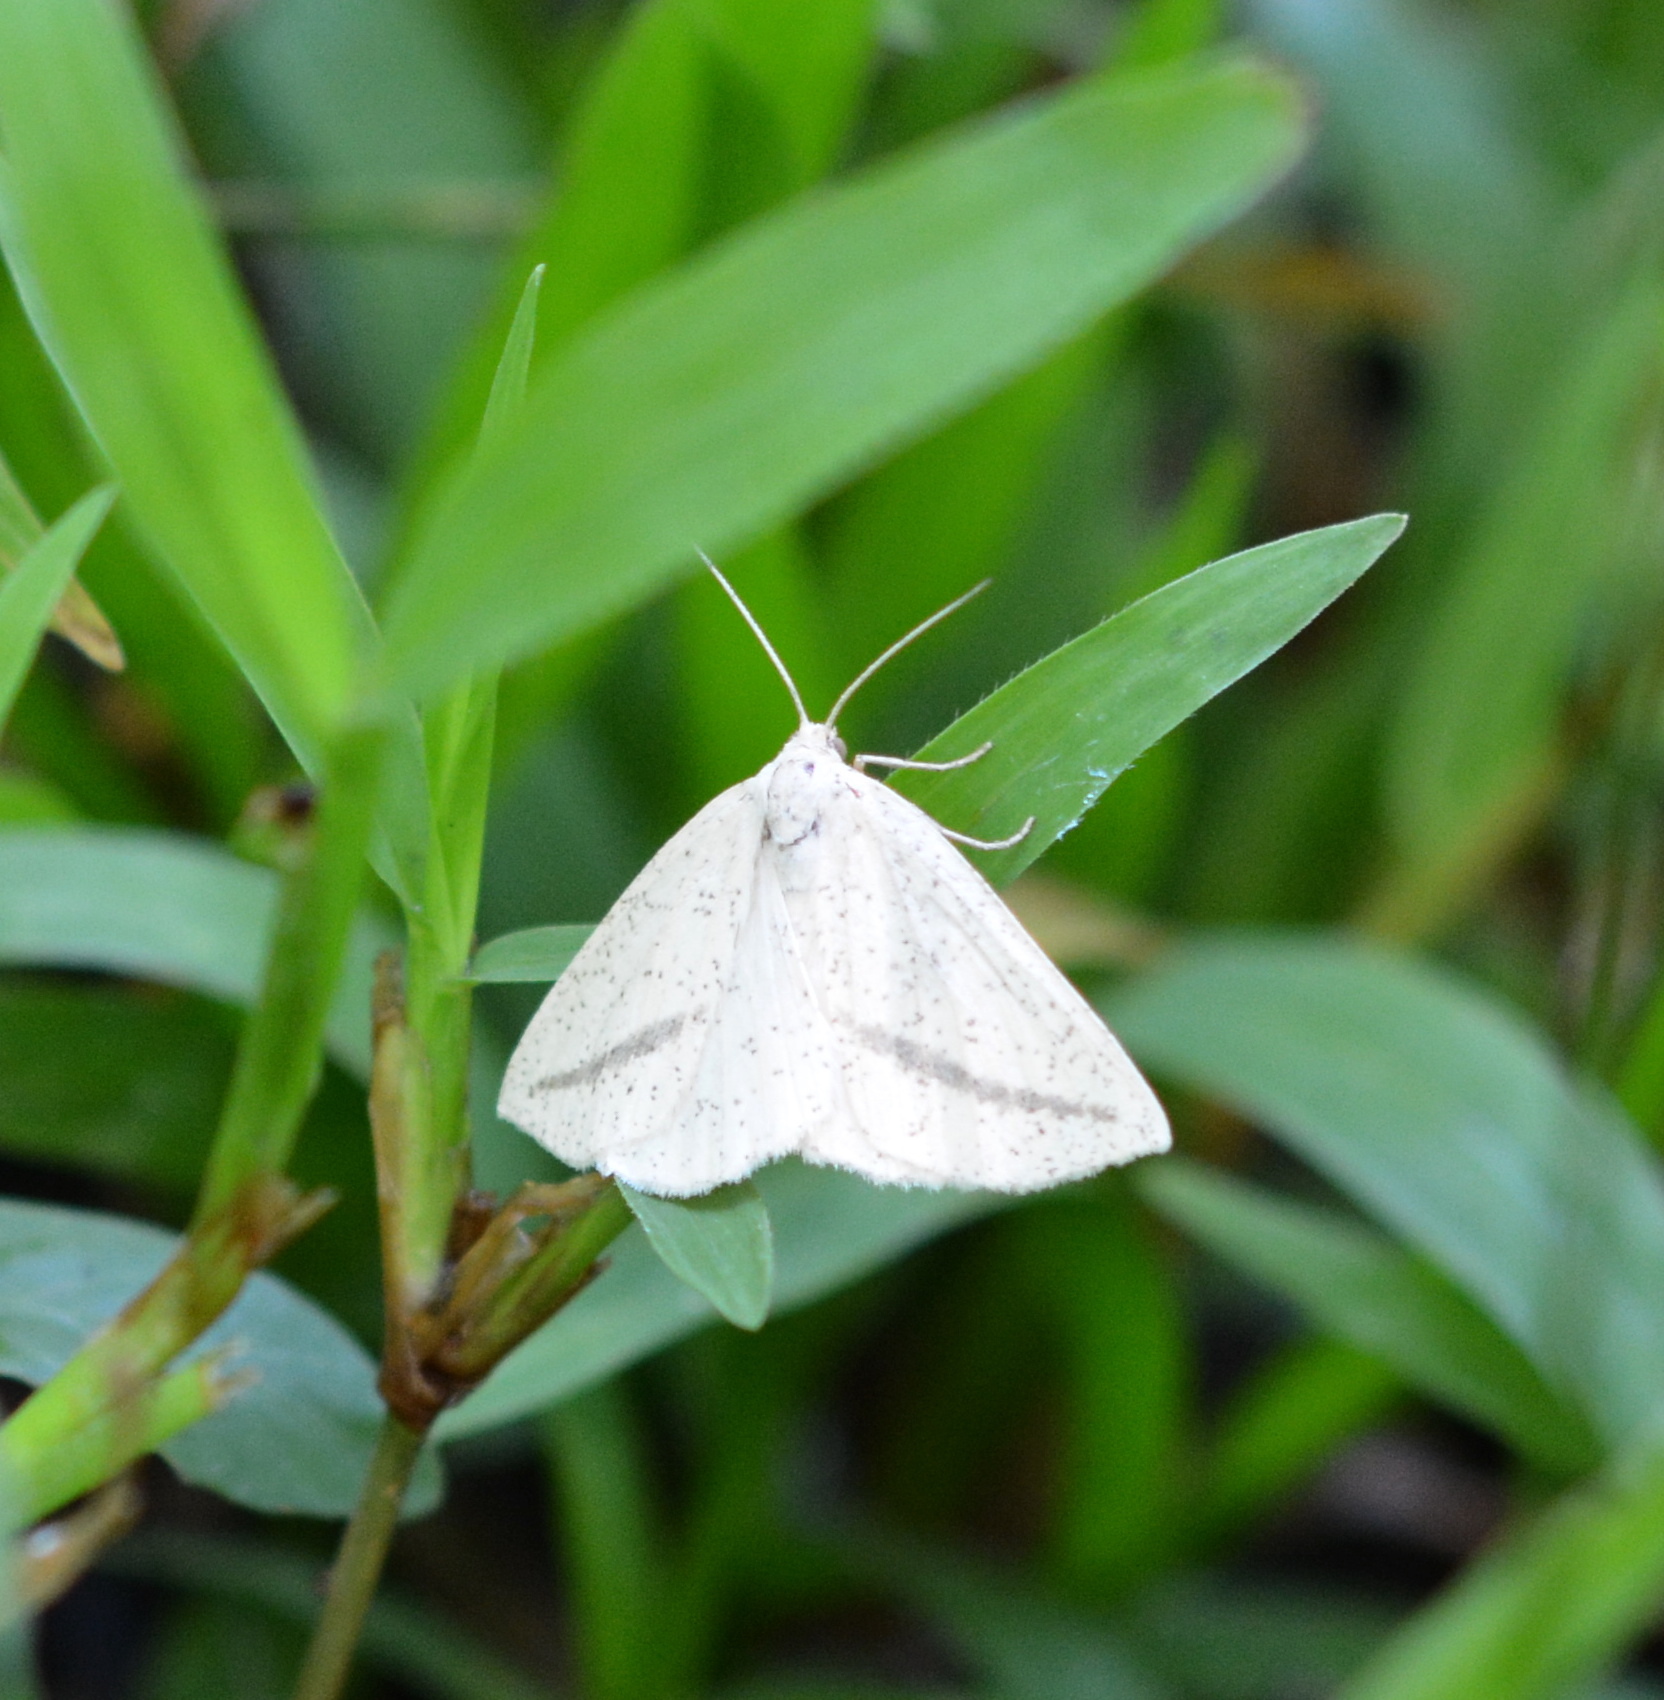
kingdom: Animalia
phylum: Arthropoda
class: Insecta
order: Lepidoptera
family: Geometridae
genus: Lychnosea
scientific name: Lychnosea intermicata
